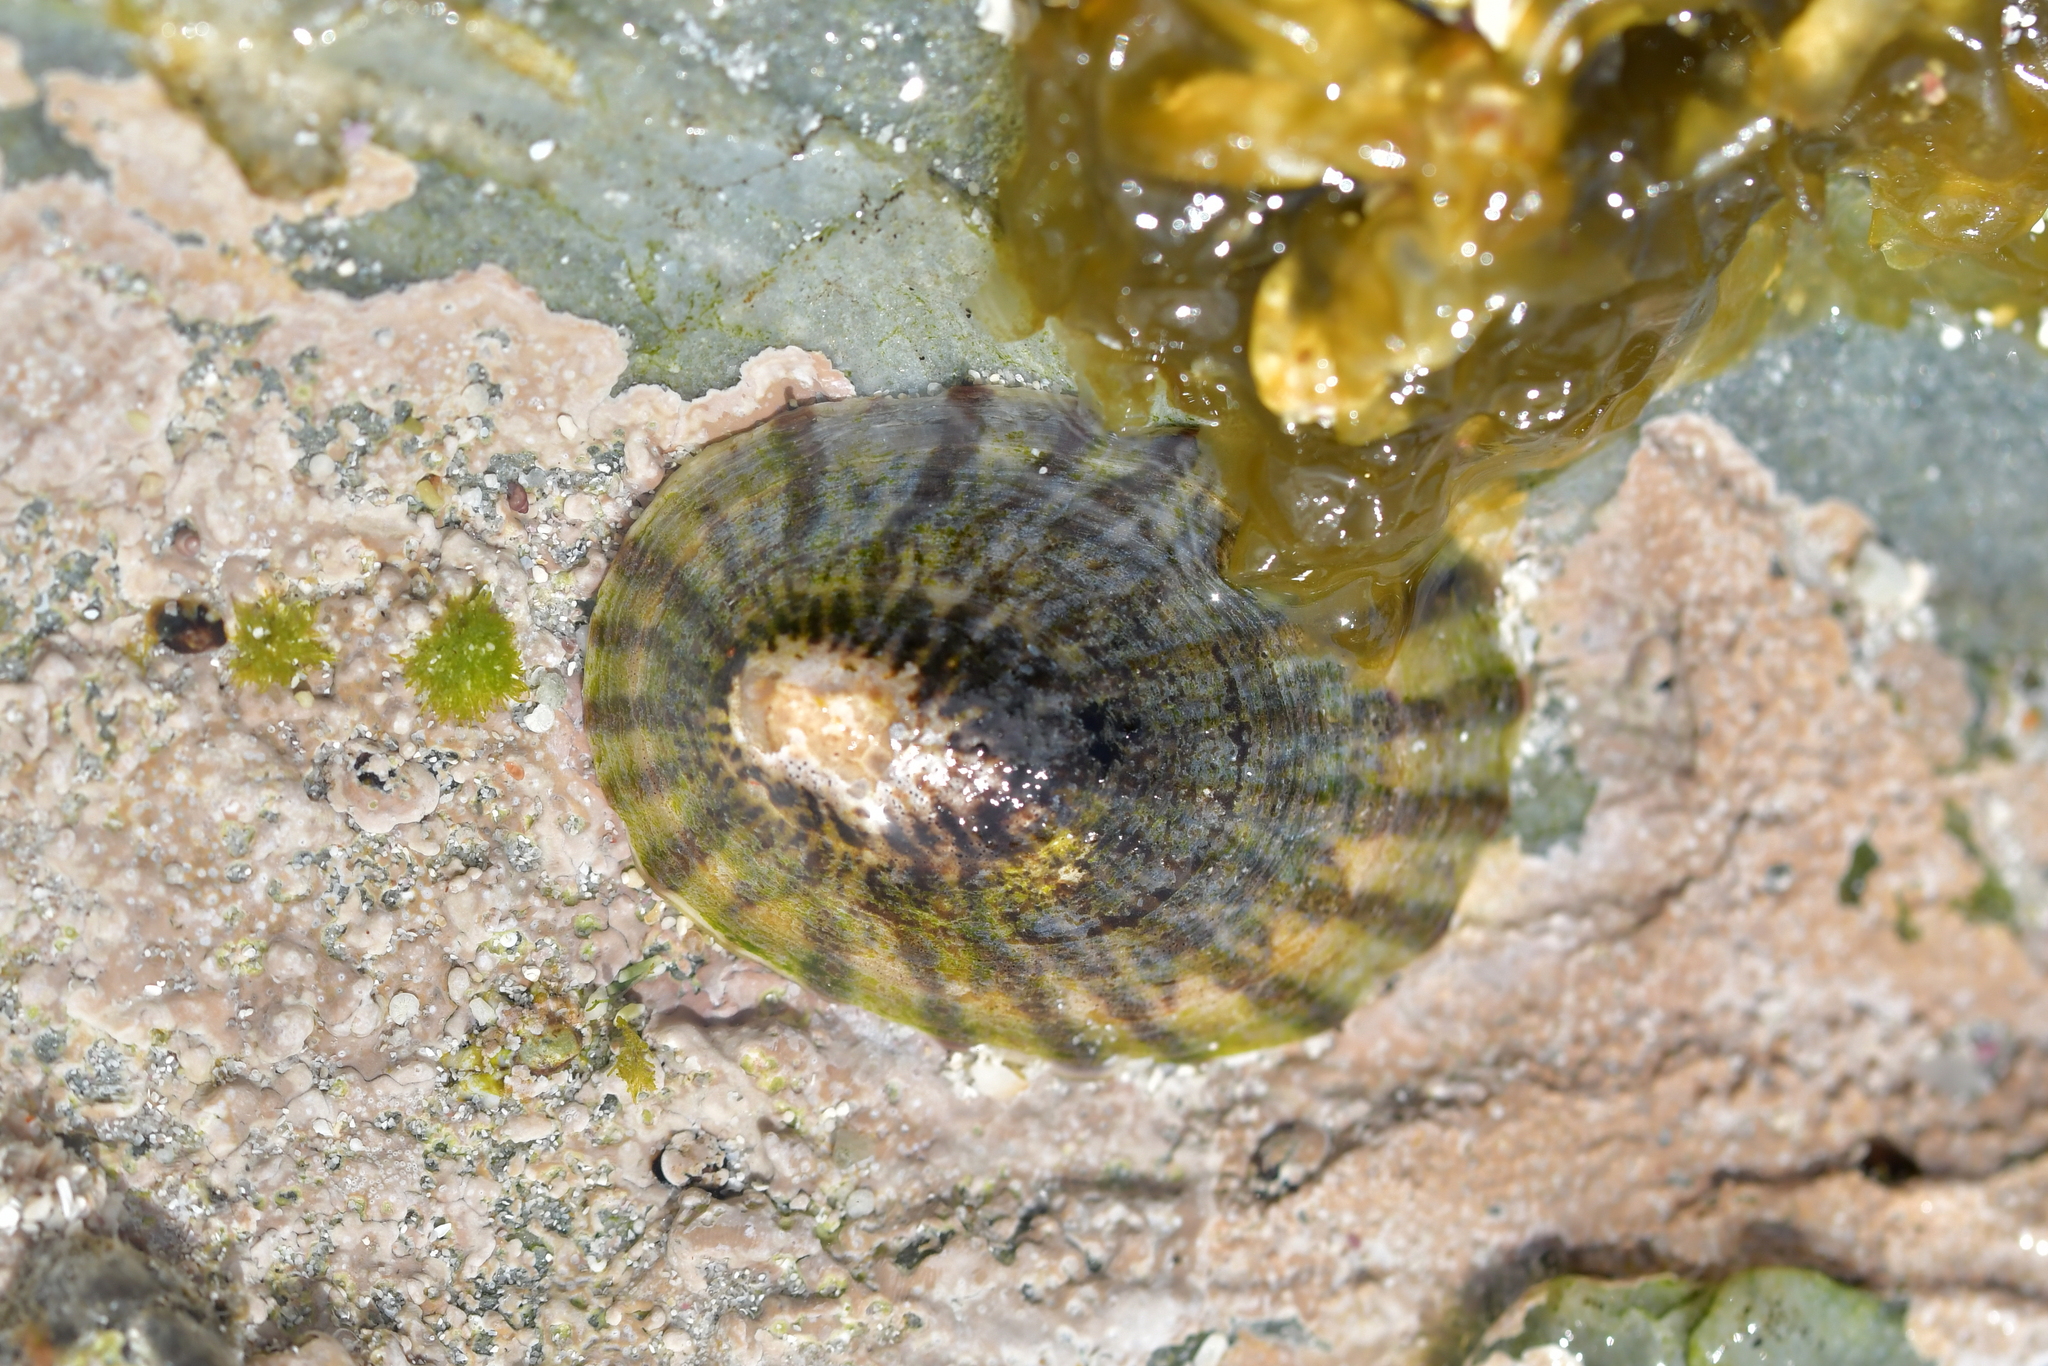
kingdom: Animalia
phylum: Mollusca
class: Gastropoda
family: Nacellidae
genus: Cellana
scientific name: Cellana oliveri
